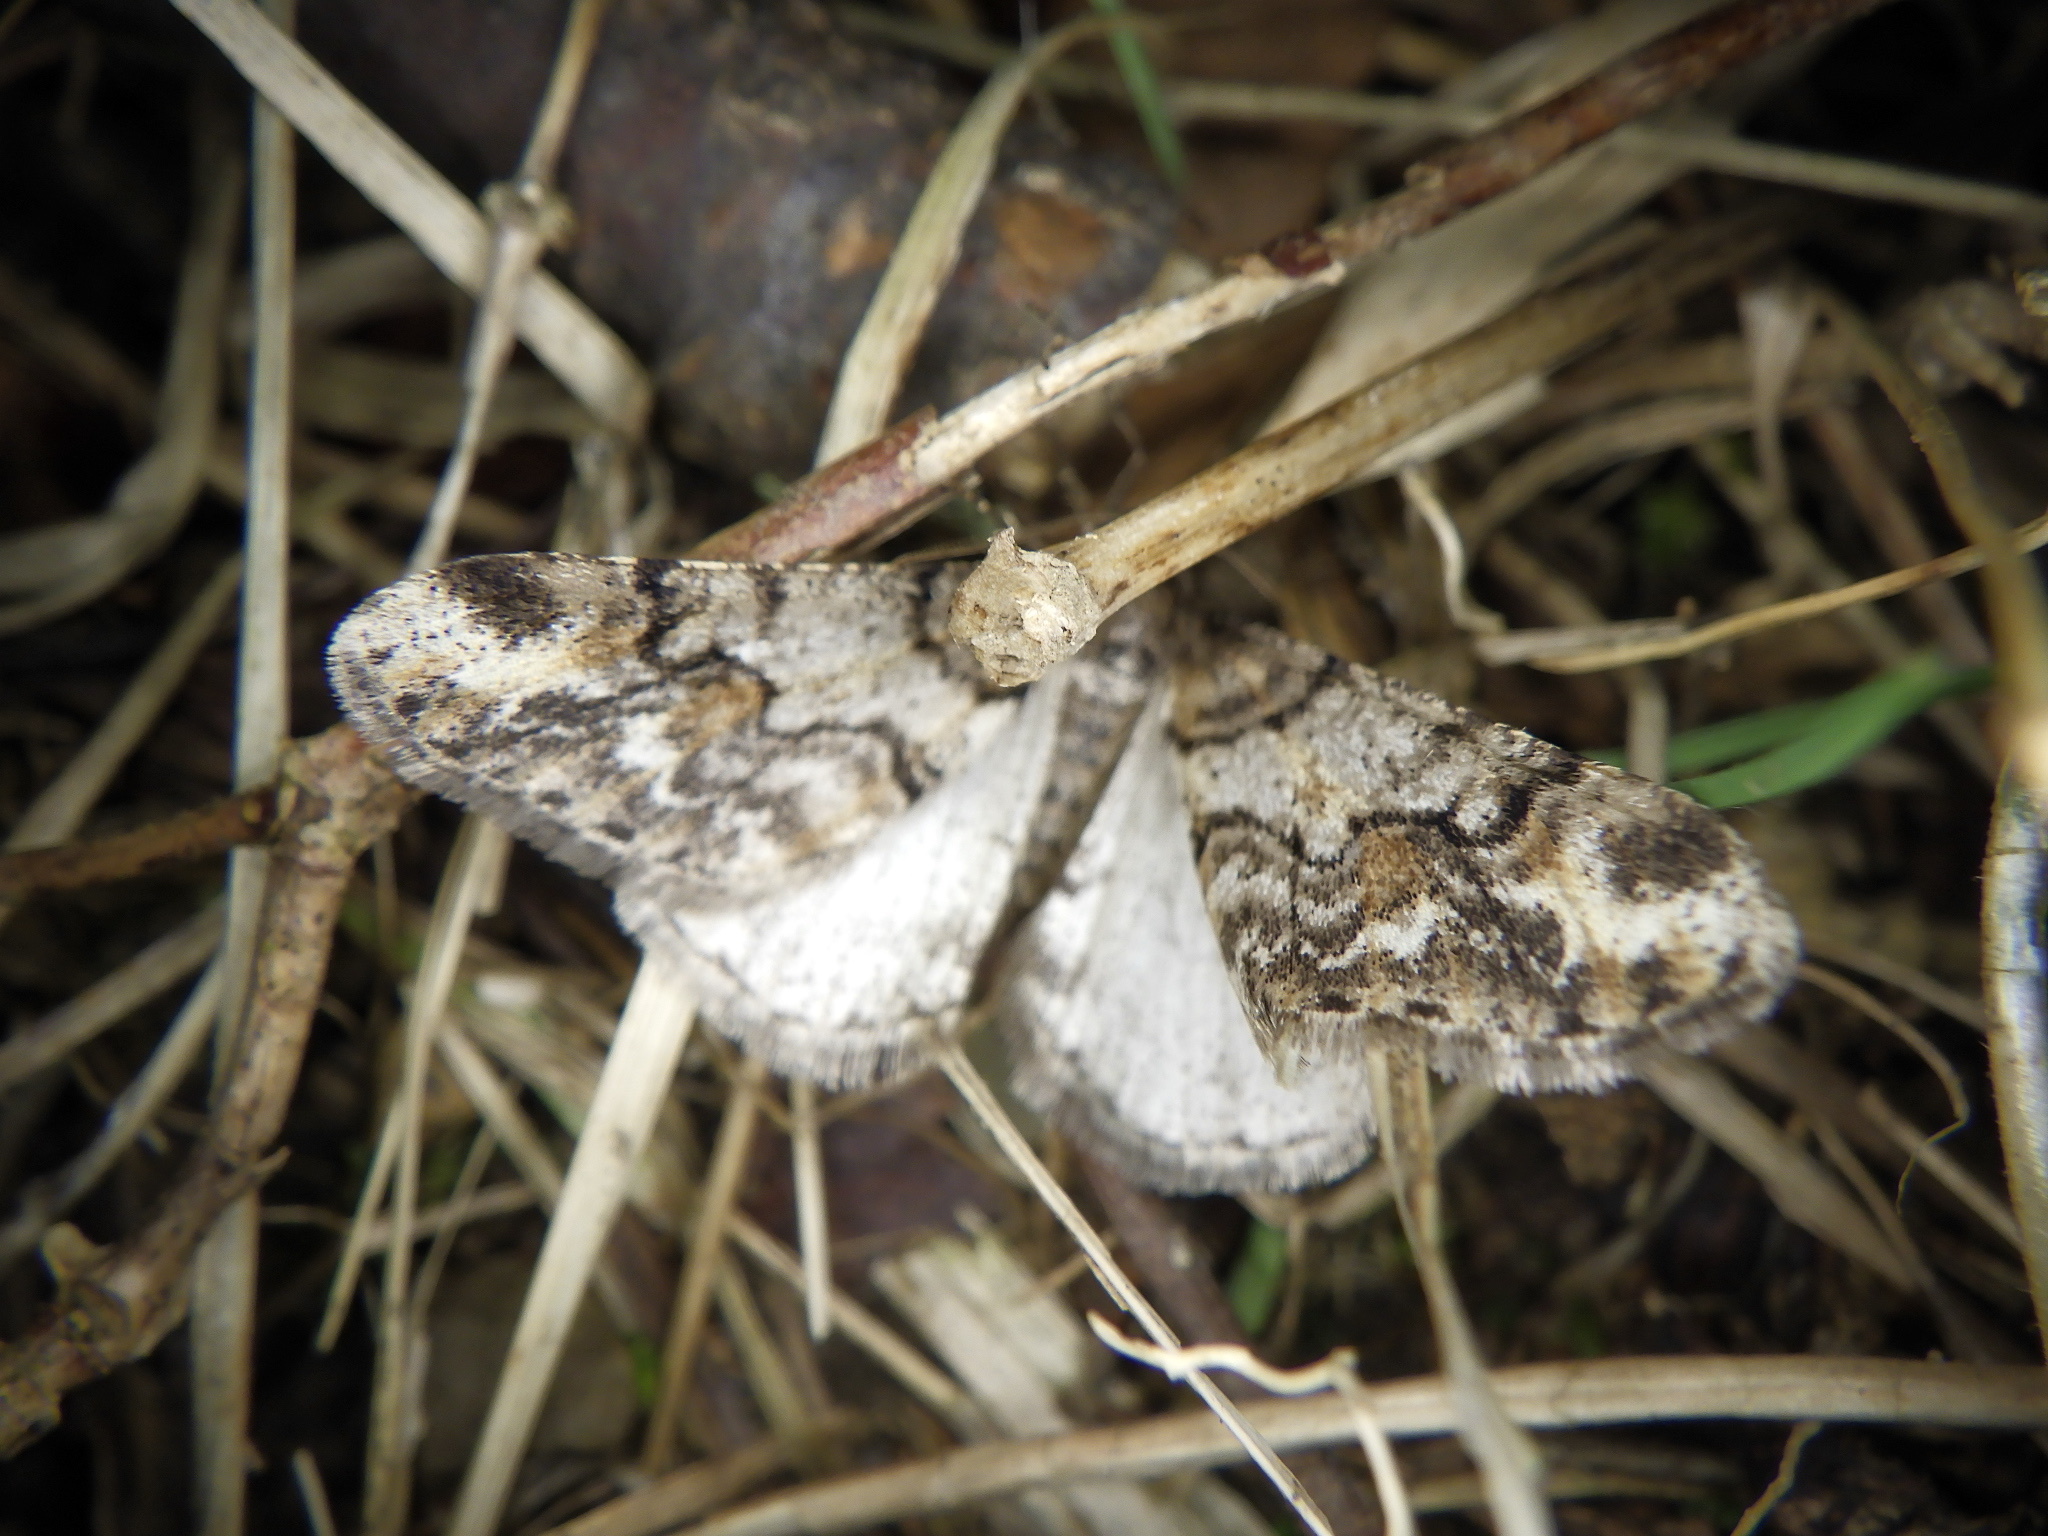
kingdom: Animalia
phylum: Arthropoda
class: Insecta
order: Lepidoptera
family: Geometridae
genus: Agriopis
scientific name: Agriopis dira
